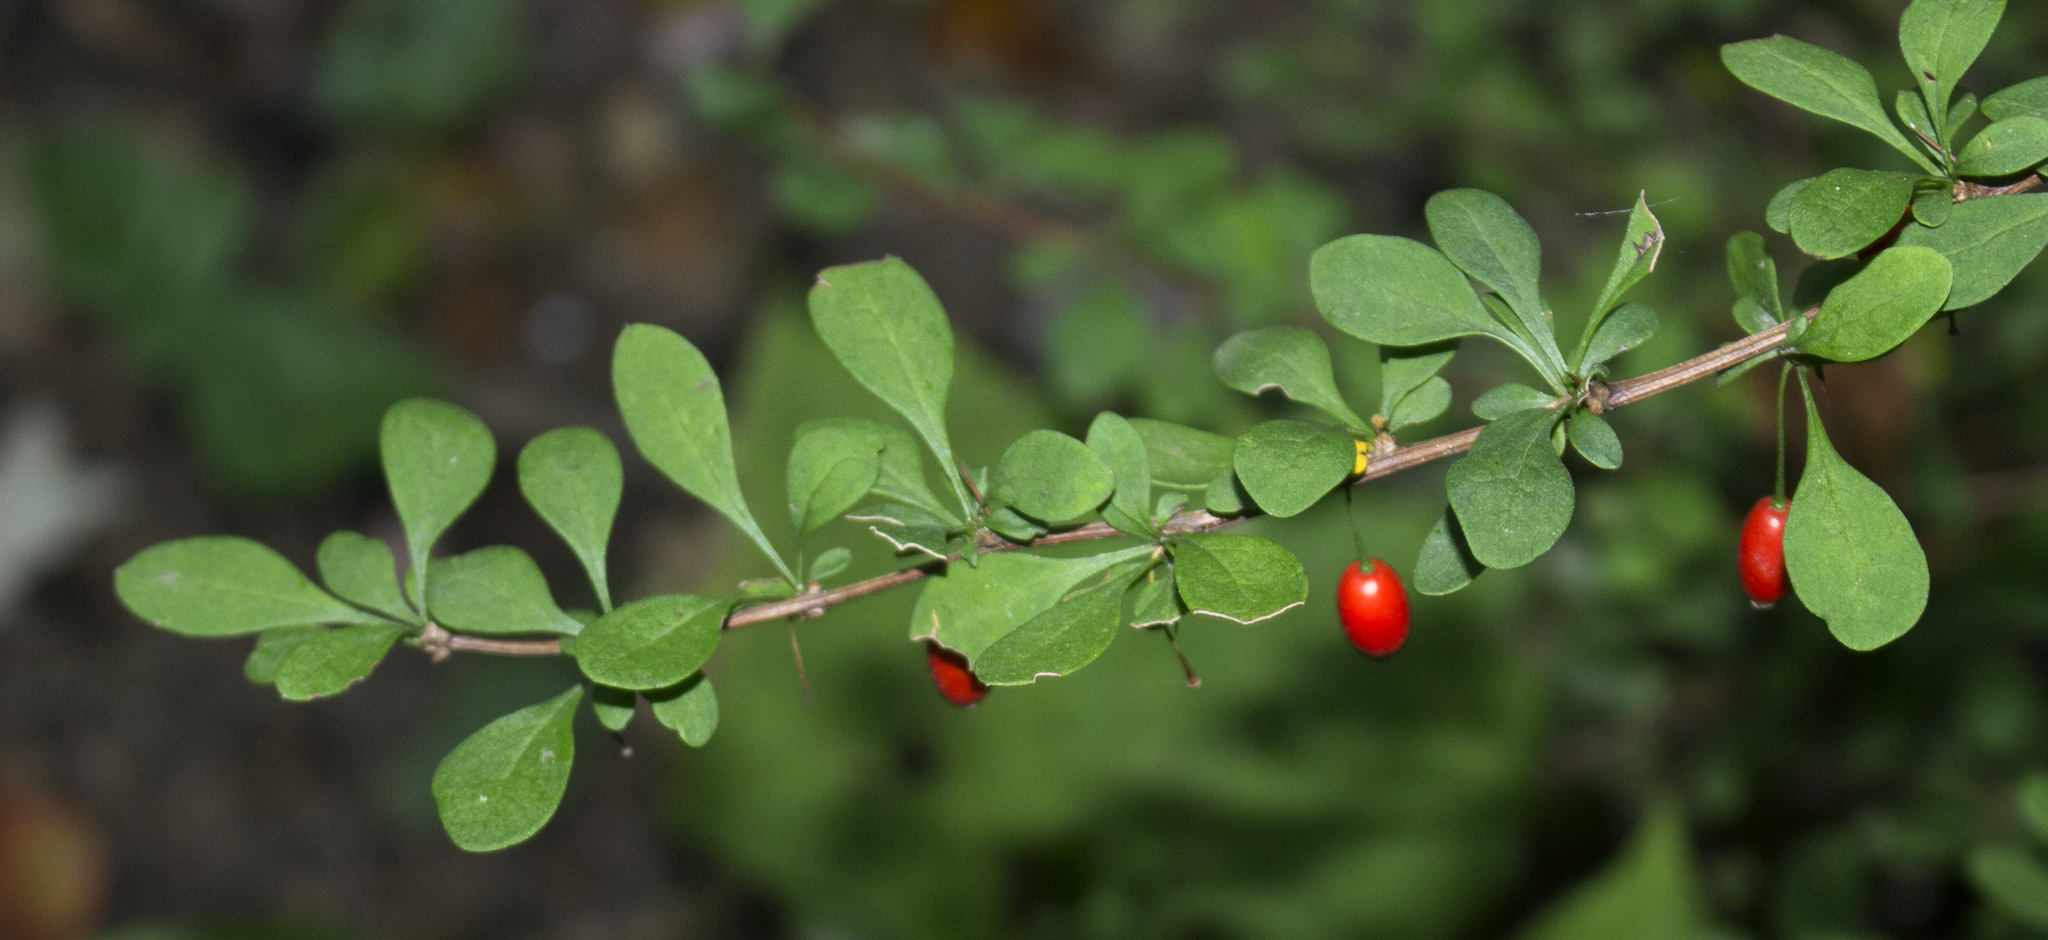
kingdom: Plantae
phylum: Tracheophyta
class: Magnoliopsida
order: Ranunculales
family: Berberidaceae
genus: Berberis
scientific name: Berberis thunbergii
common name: Japanese barberry
